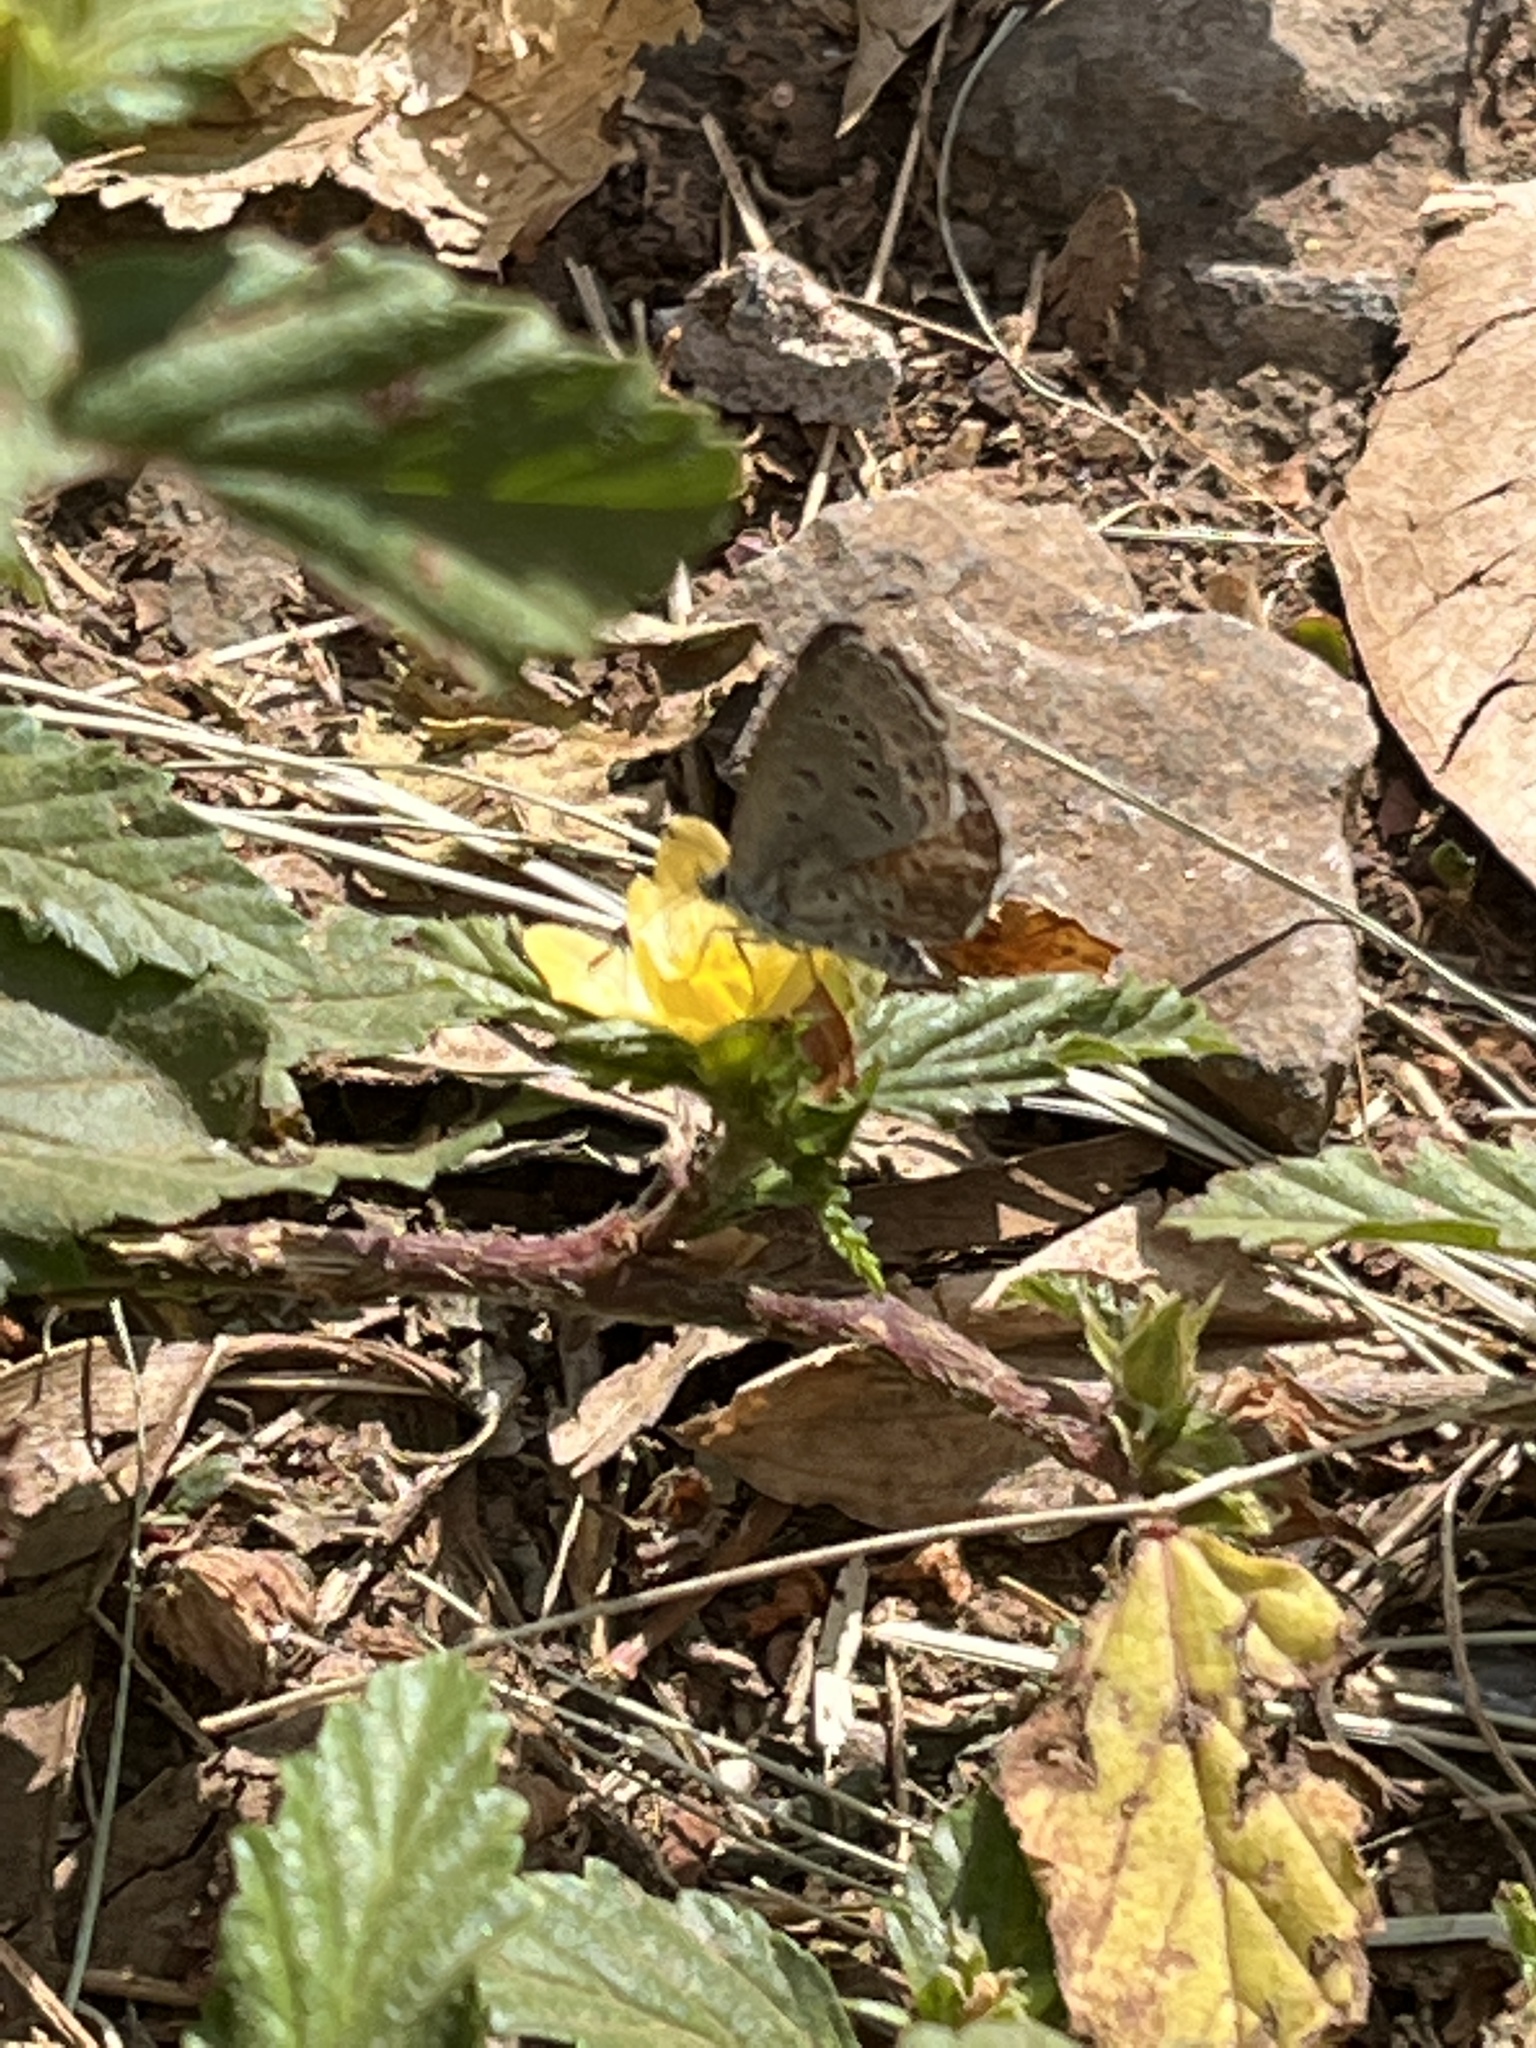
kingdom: Animalia
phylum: Arthropoda
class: Insecta
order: Lepidoptera
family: Lycaenidae
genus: Zizeeria
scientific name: Zizeeria knysna
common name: African grass blue
